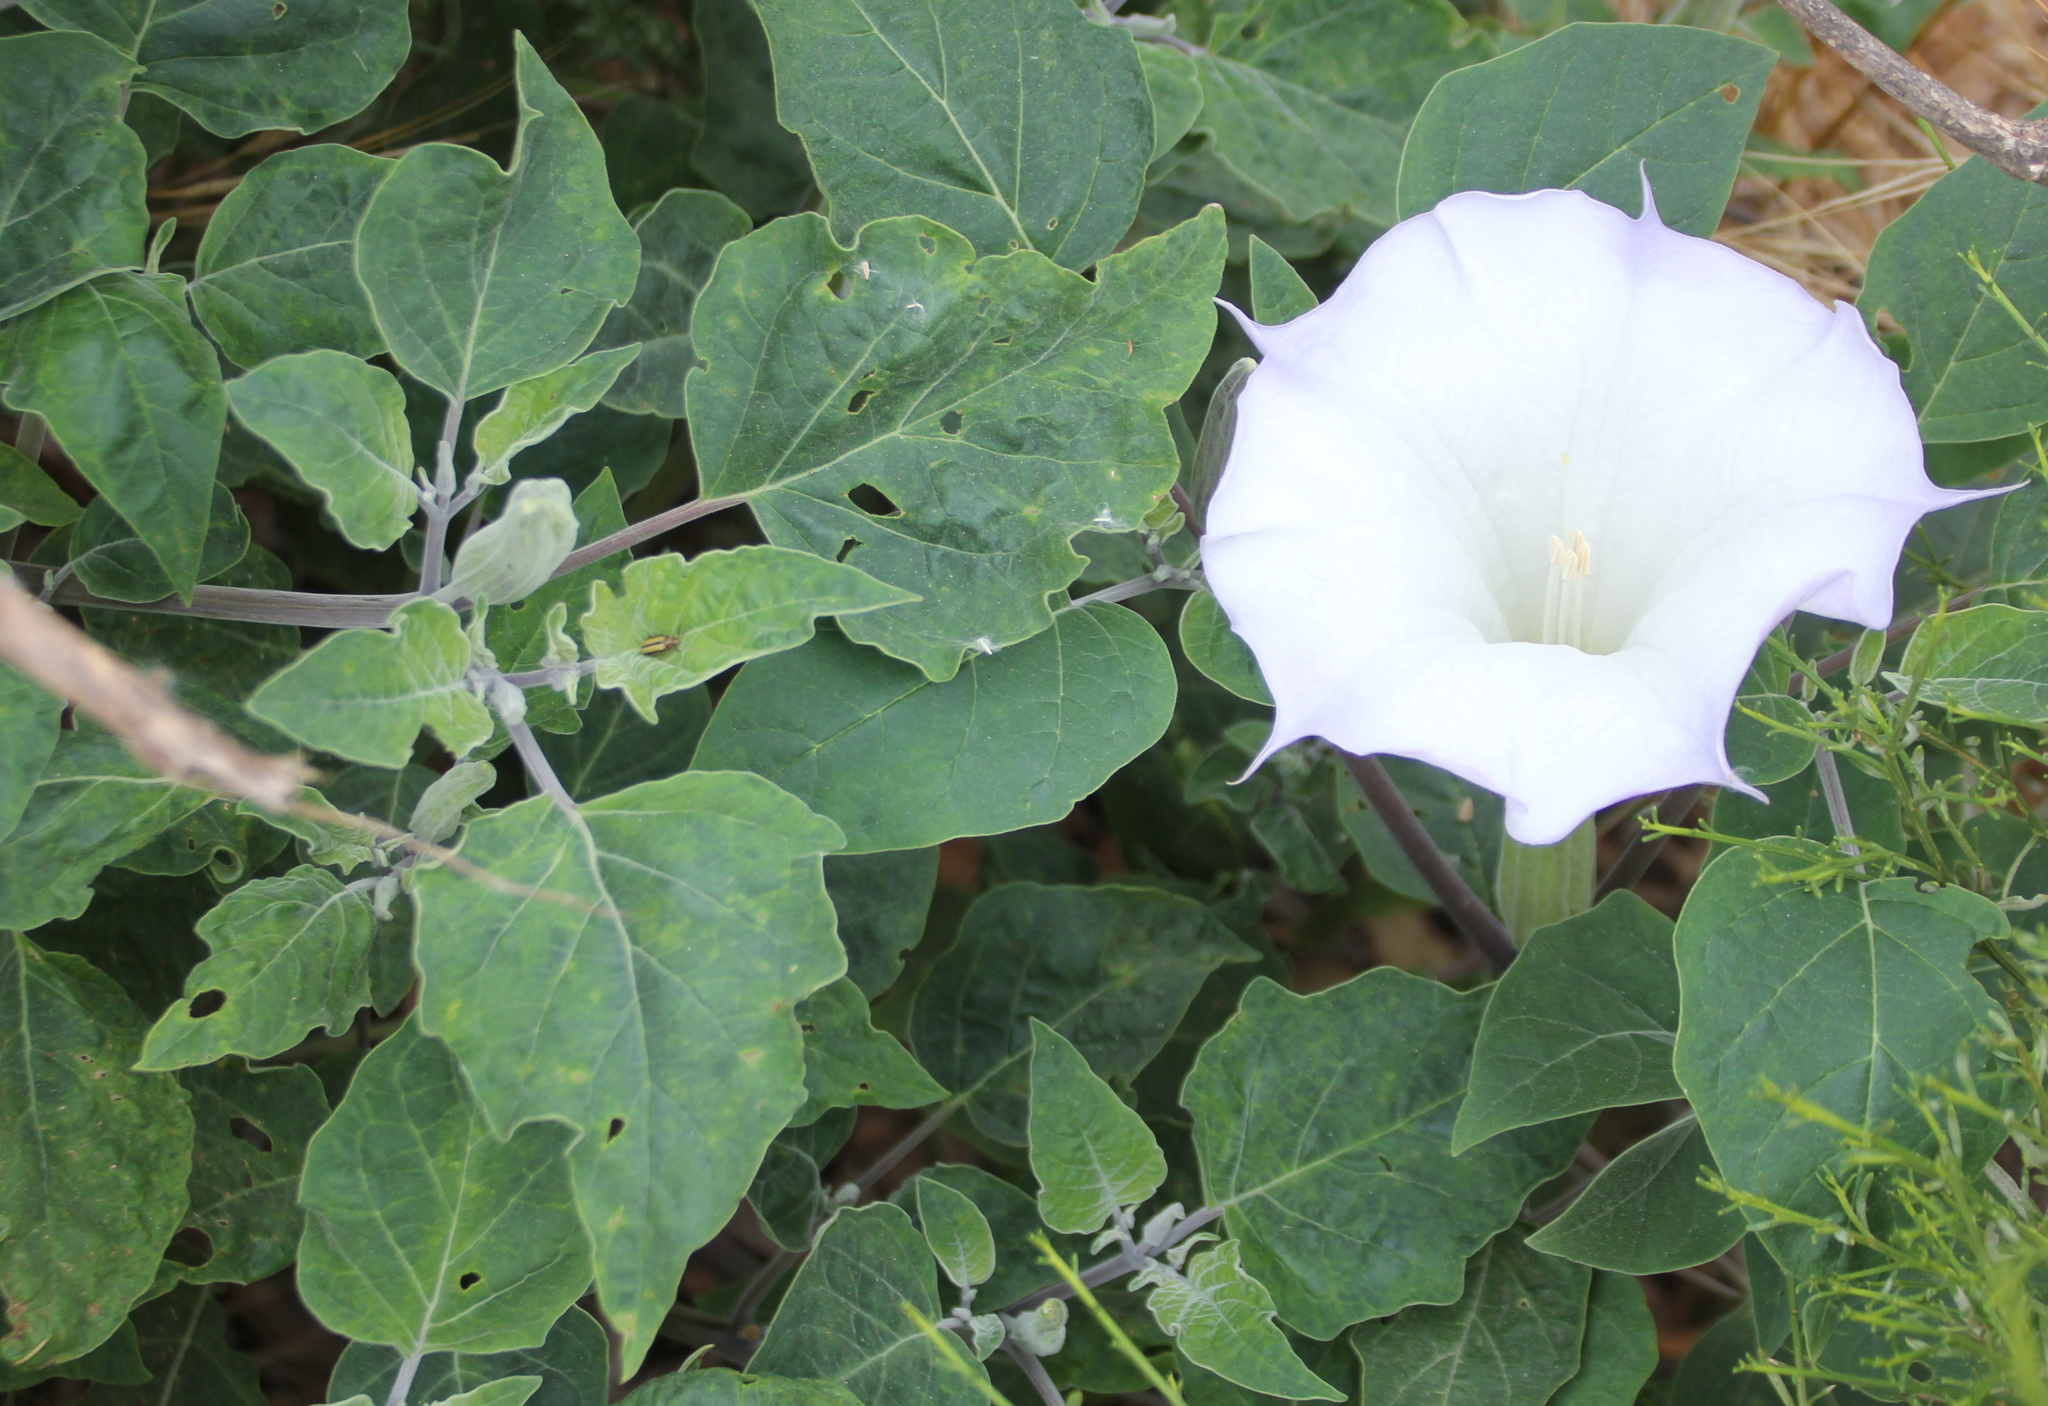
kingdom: Plantae
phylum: Tracheophyta
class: Magnoliopsida
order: Solanales
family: Solanaceae
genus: Datura
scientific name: Datura wrightii
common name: Sacred thorn-apple
